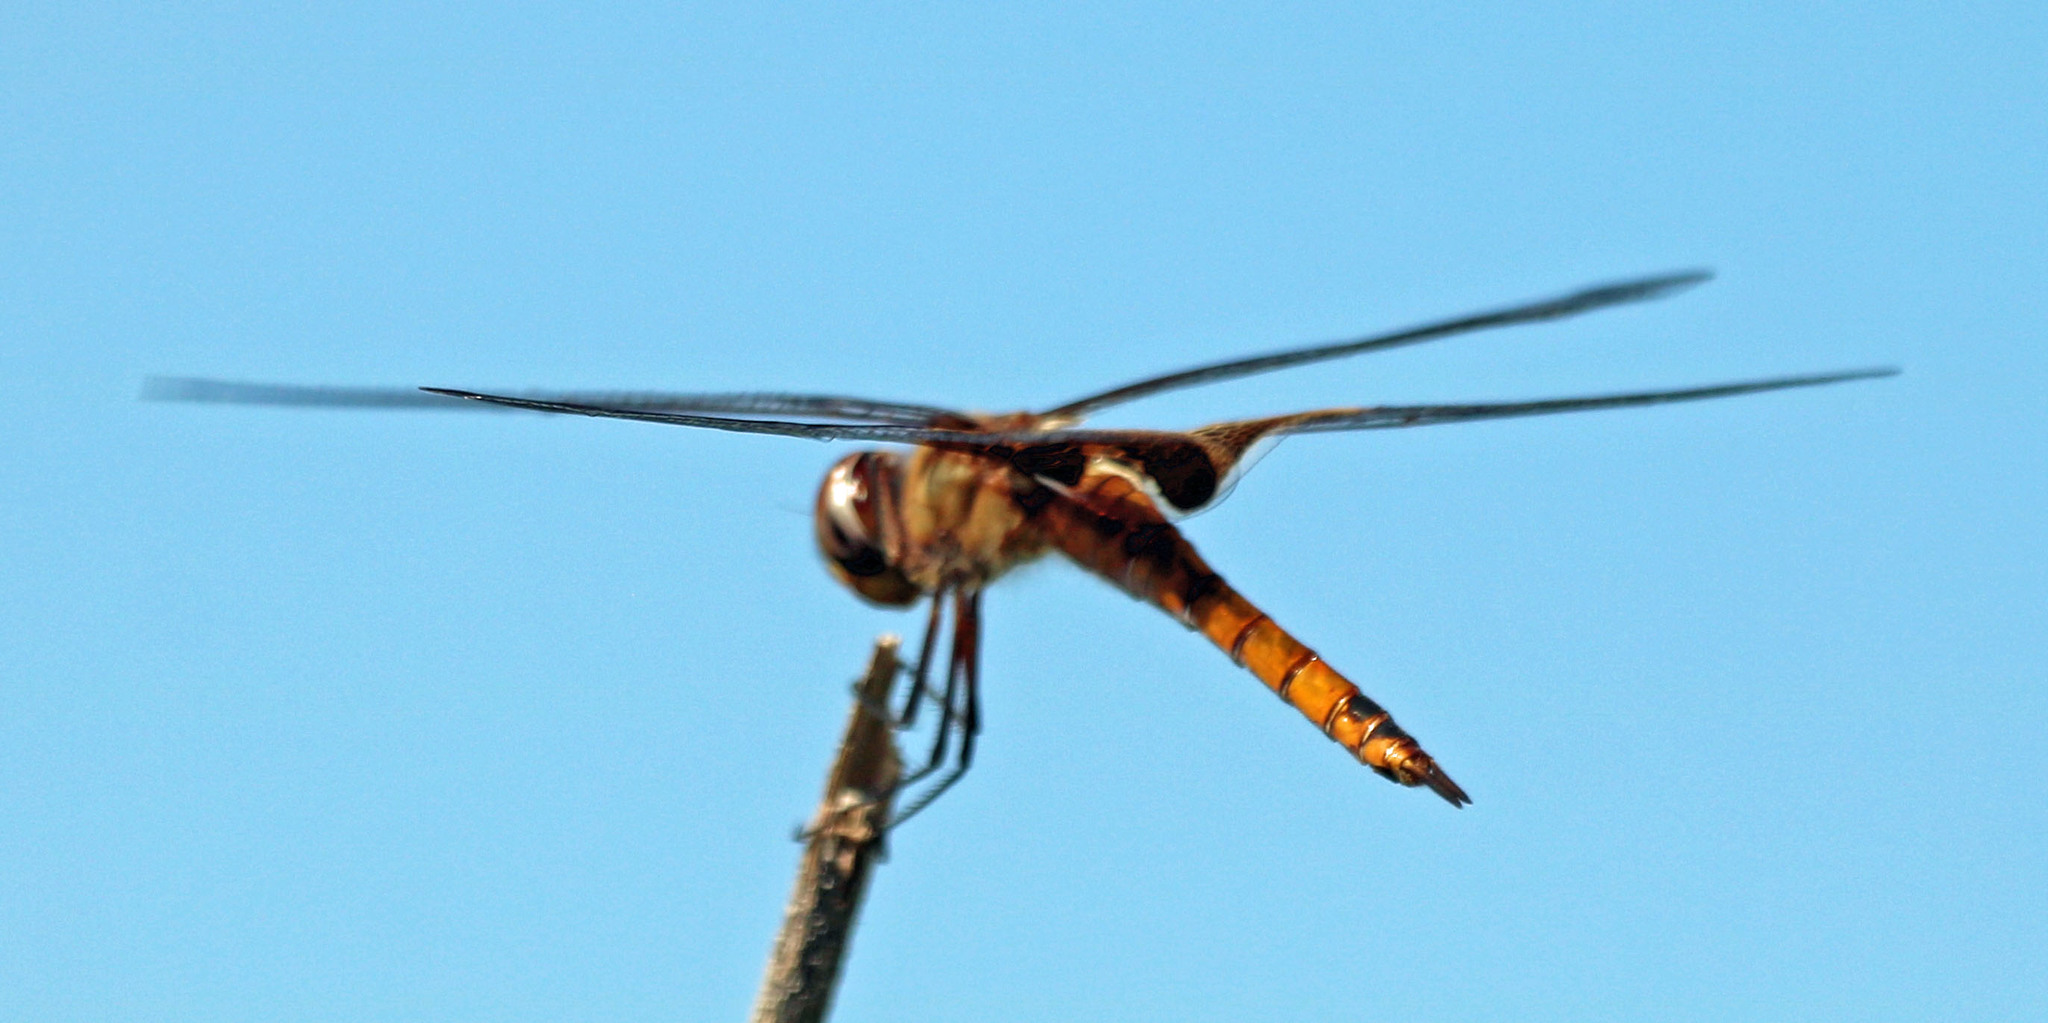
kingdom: Animalia
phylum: Arthropoda
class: Insecta
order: Odonata
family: Libellulidae
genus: Tramea
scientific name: Tramea onusta
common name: Red saddlebags
